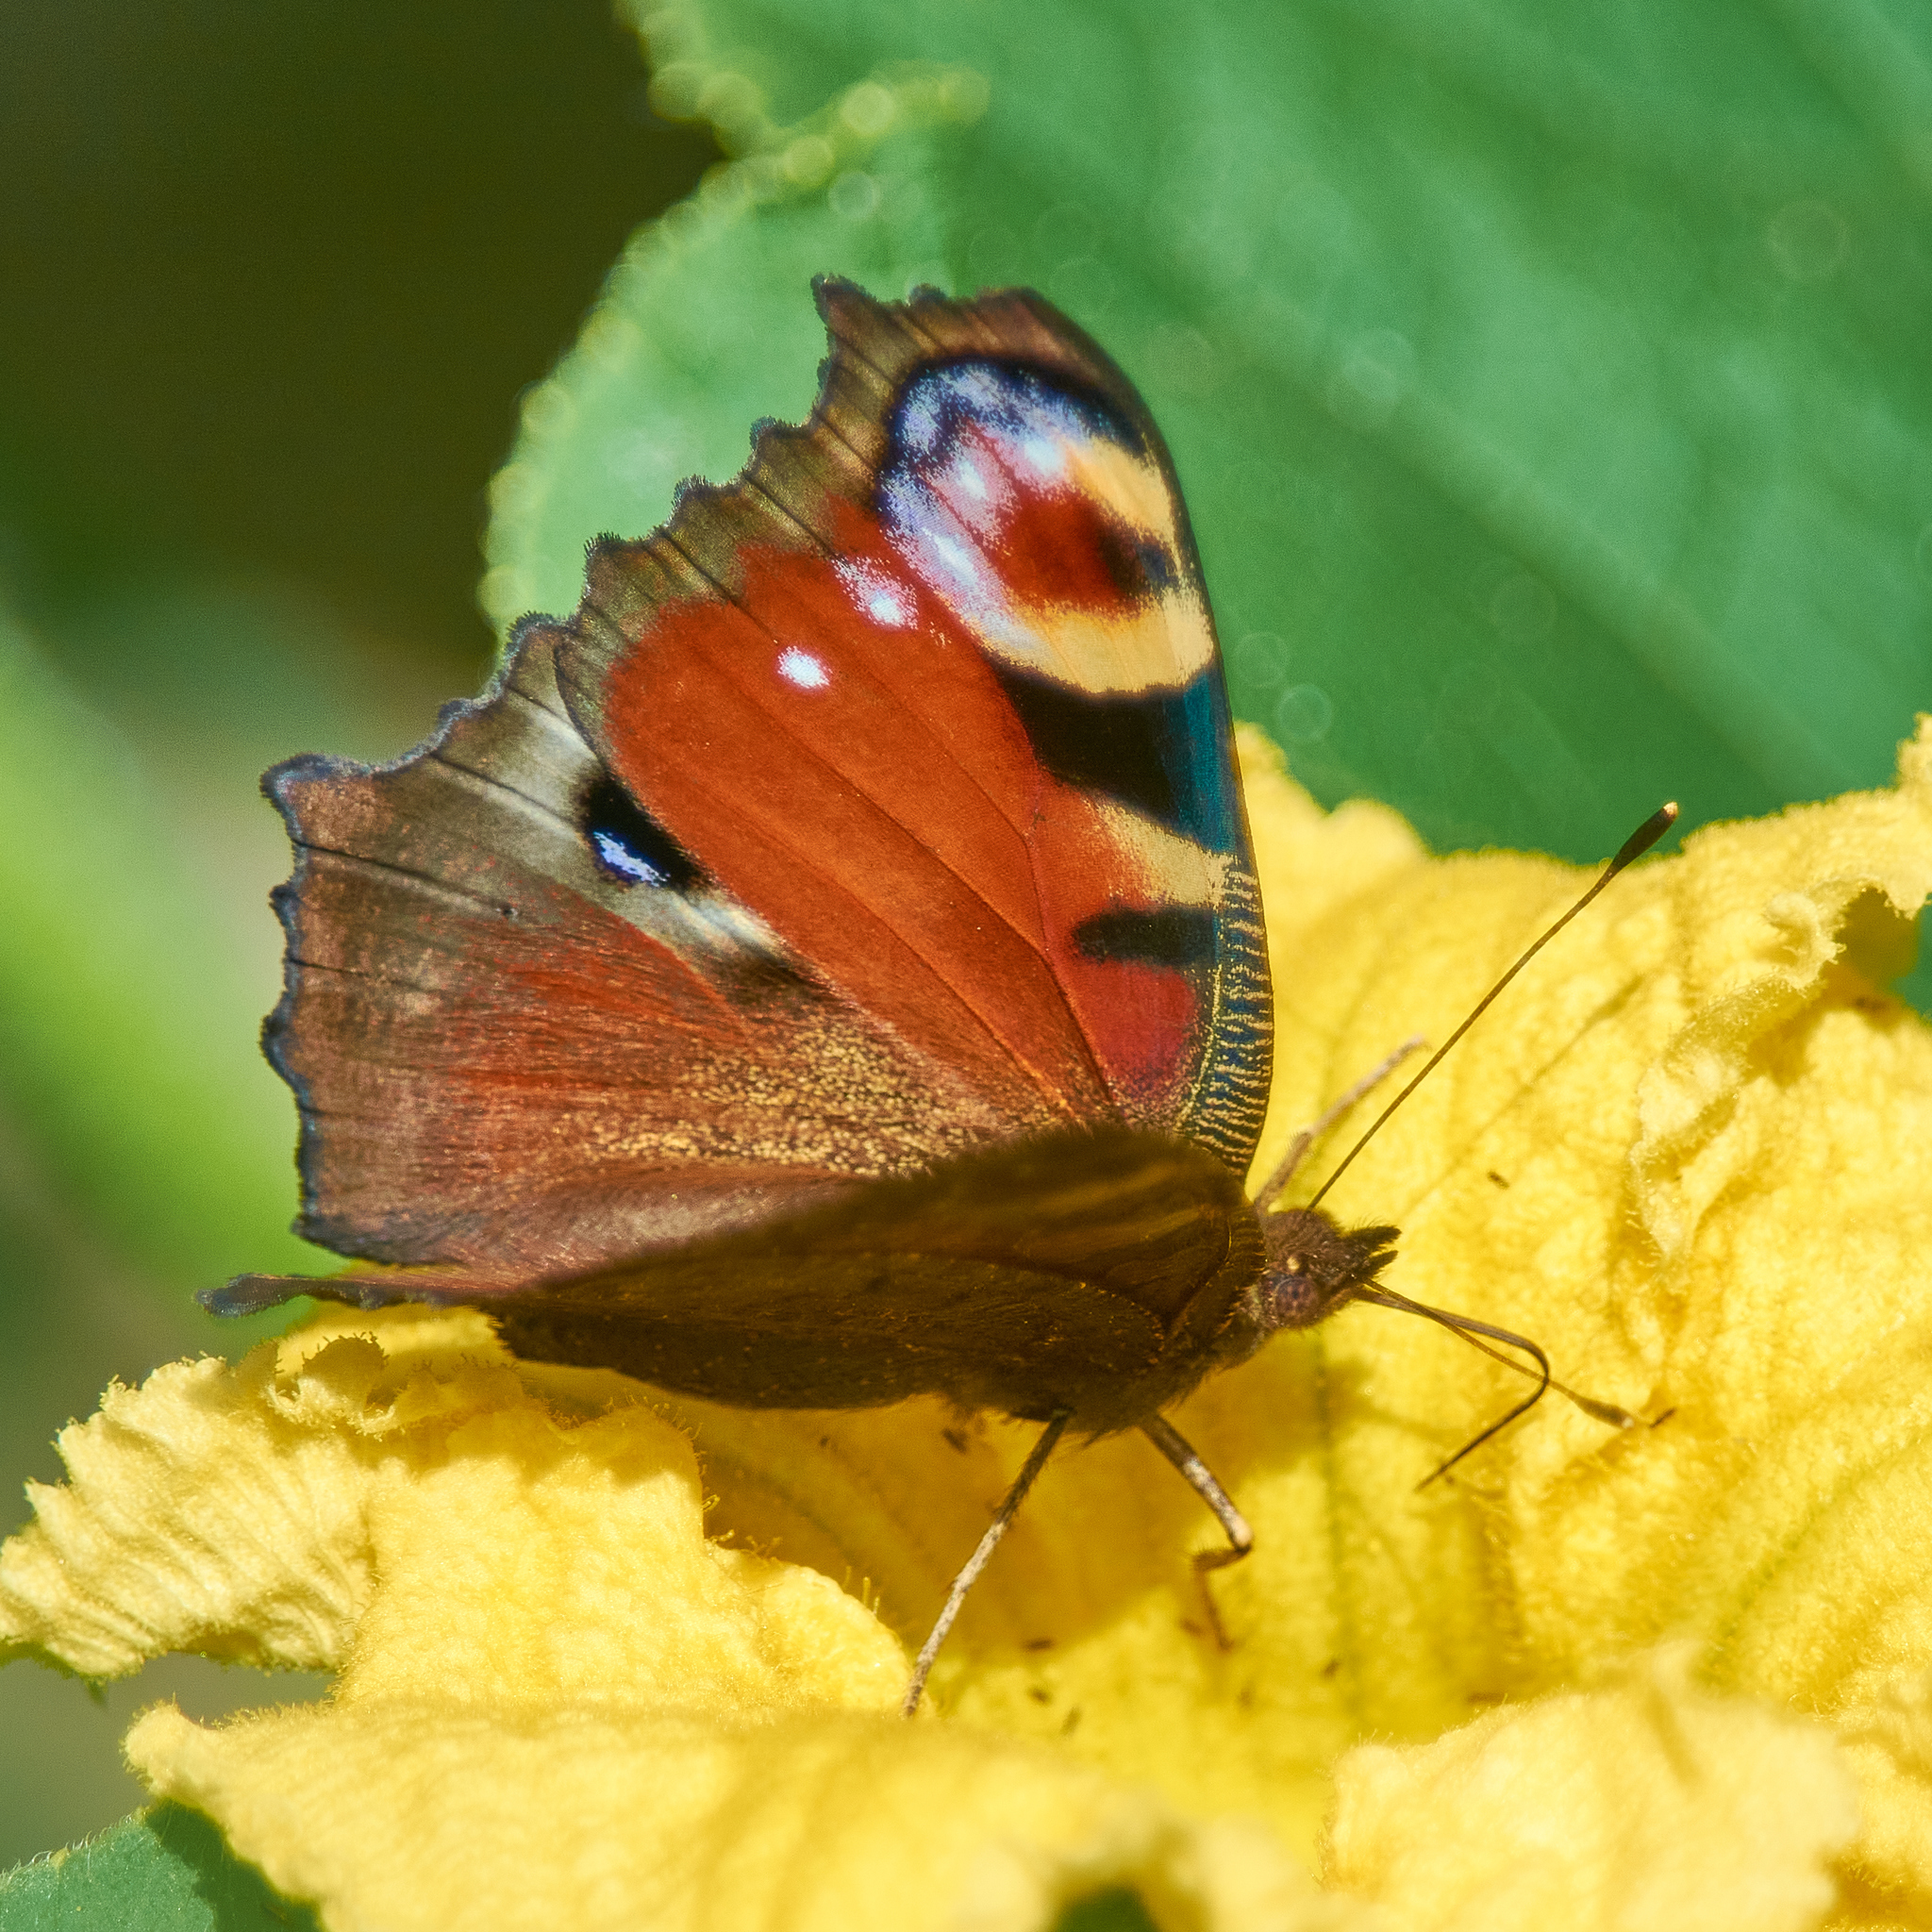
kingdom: Animalia
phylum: Arthropoda
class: Insecta
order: Lepidoptera
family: Nymphalidae
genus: Aglais
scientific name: Aglais io
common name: Peacock
